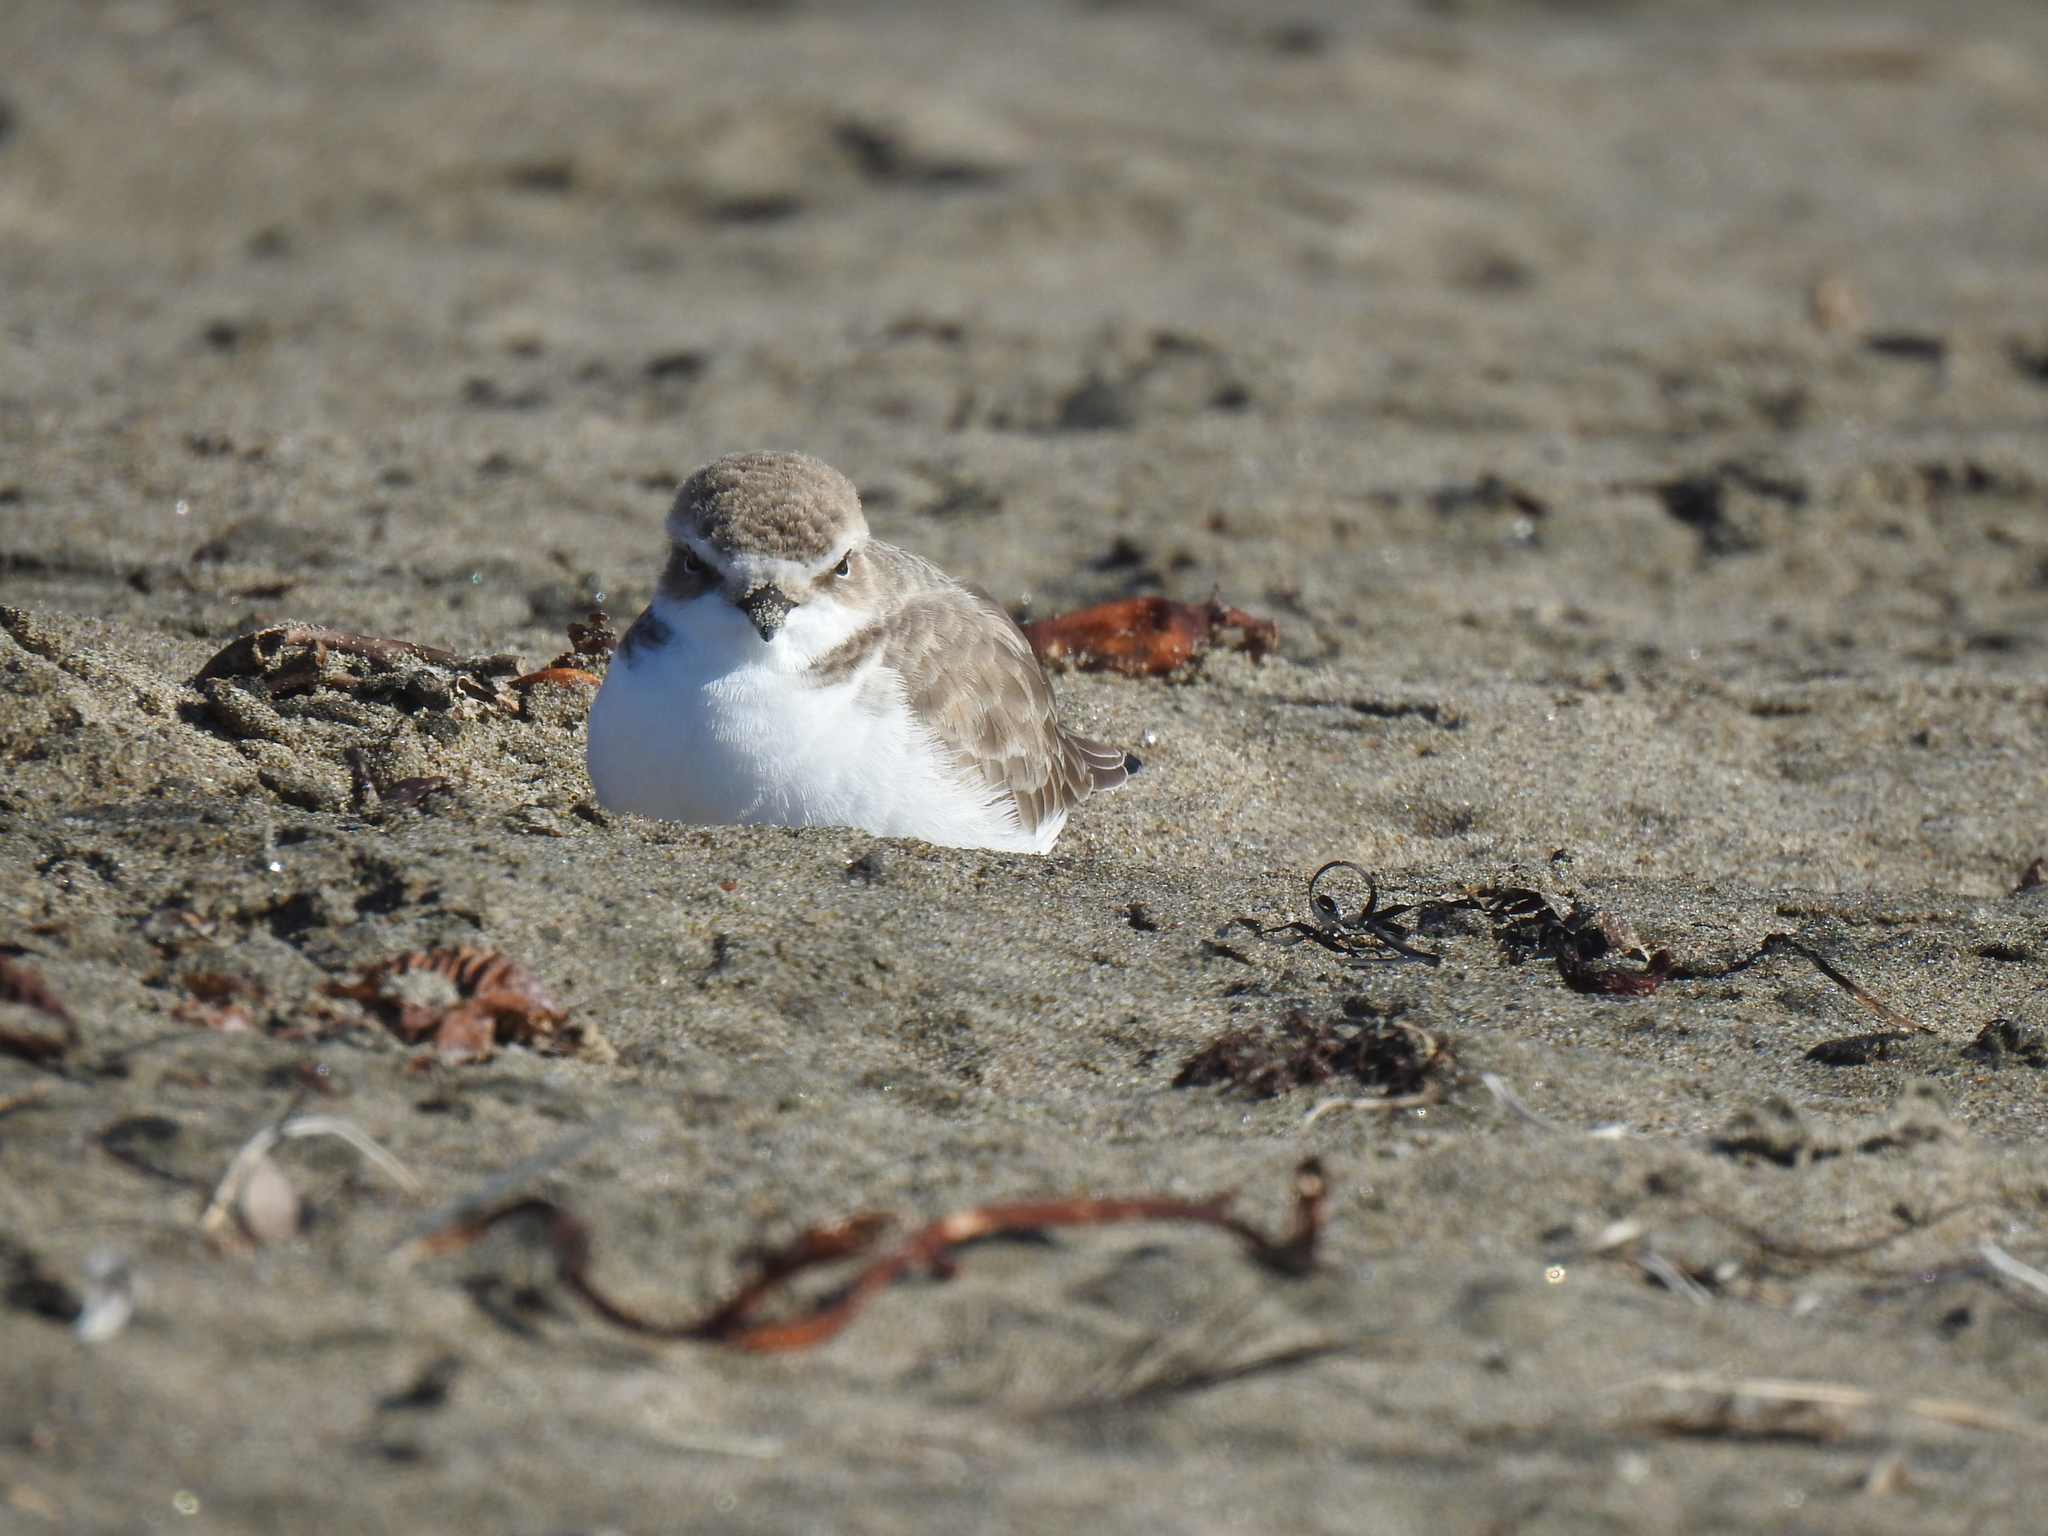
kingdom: Animalia
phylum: Chordata
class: Aves
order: Charadriiformes
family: Charadriidae
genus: Anarhynchus
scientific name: Anarhynchus
